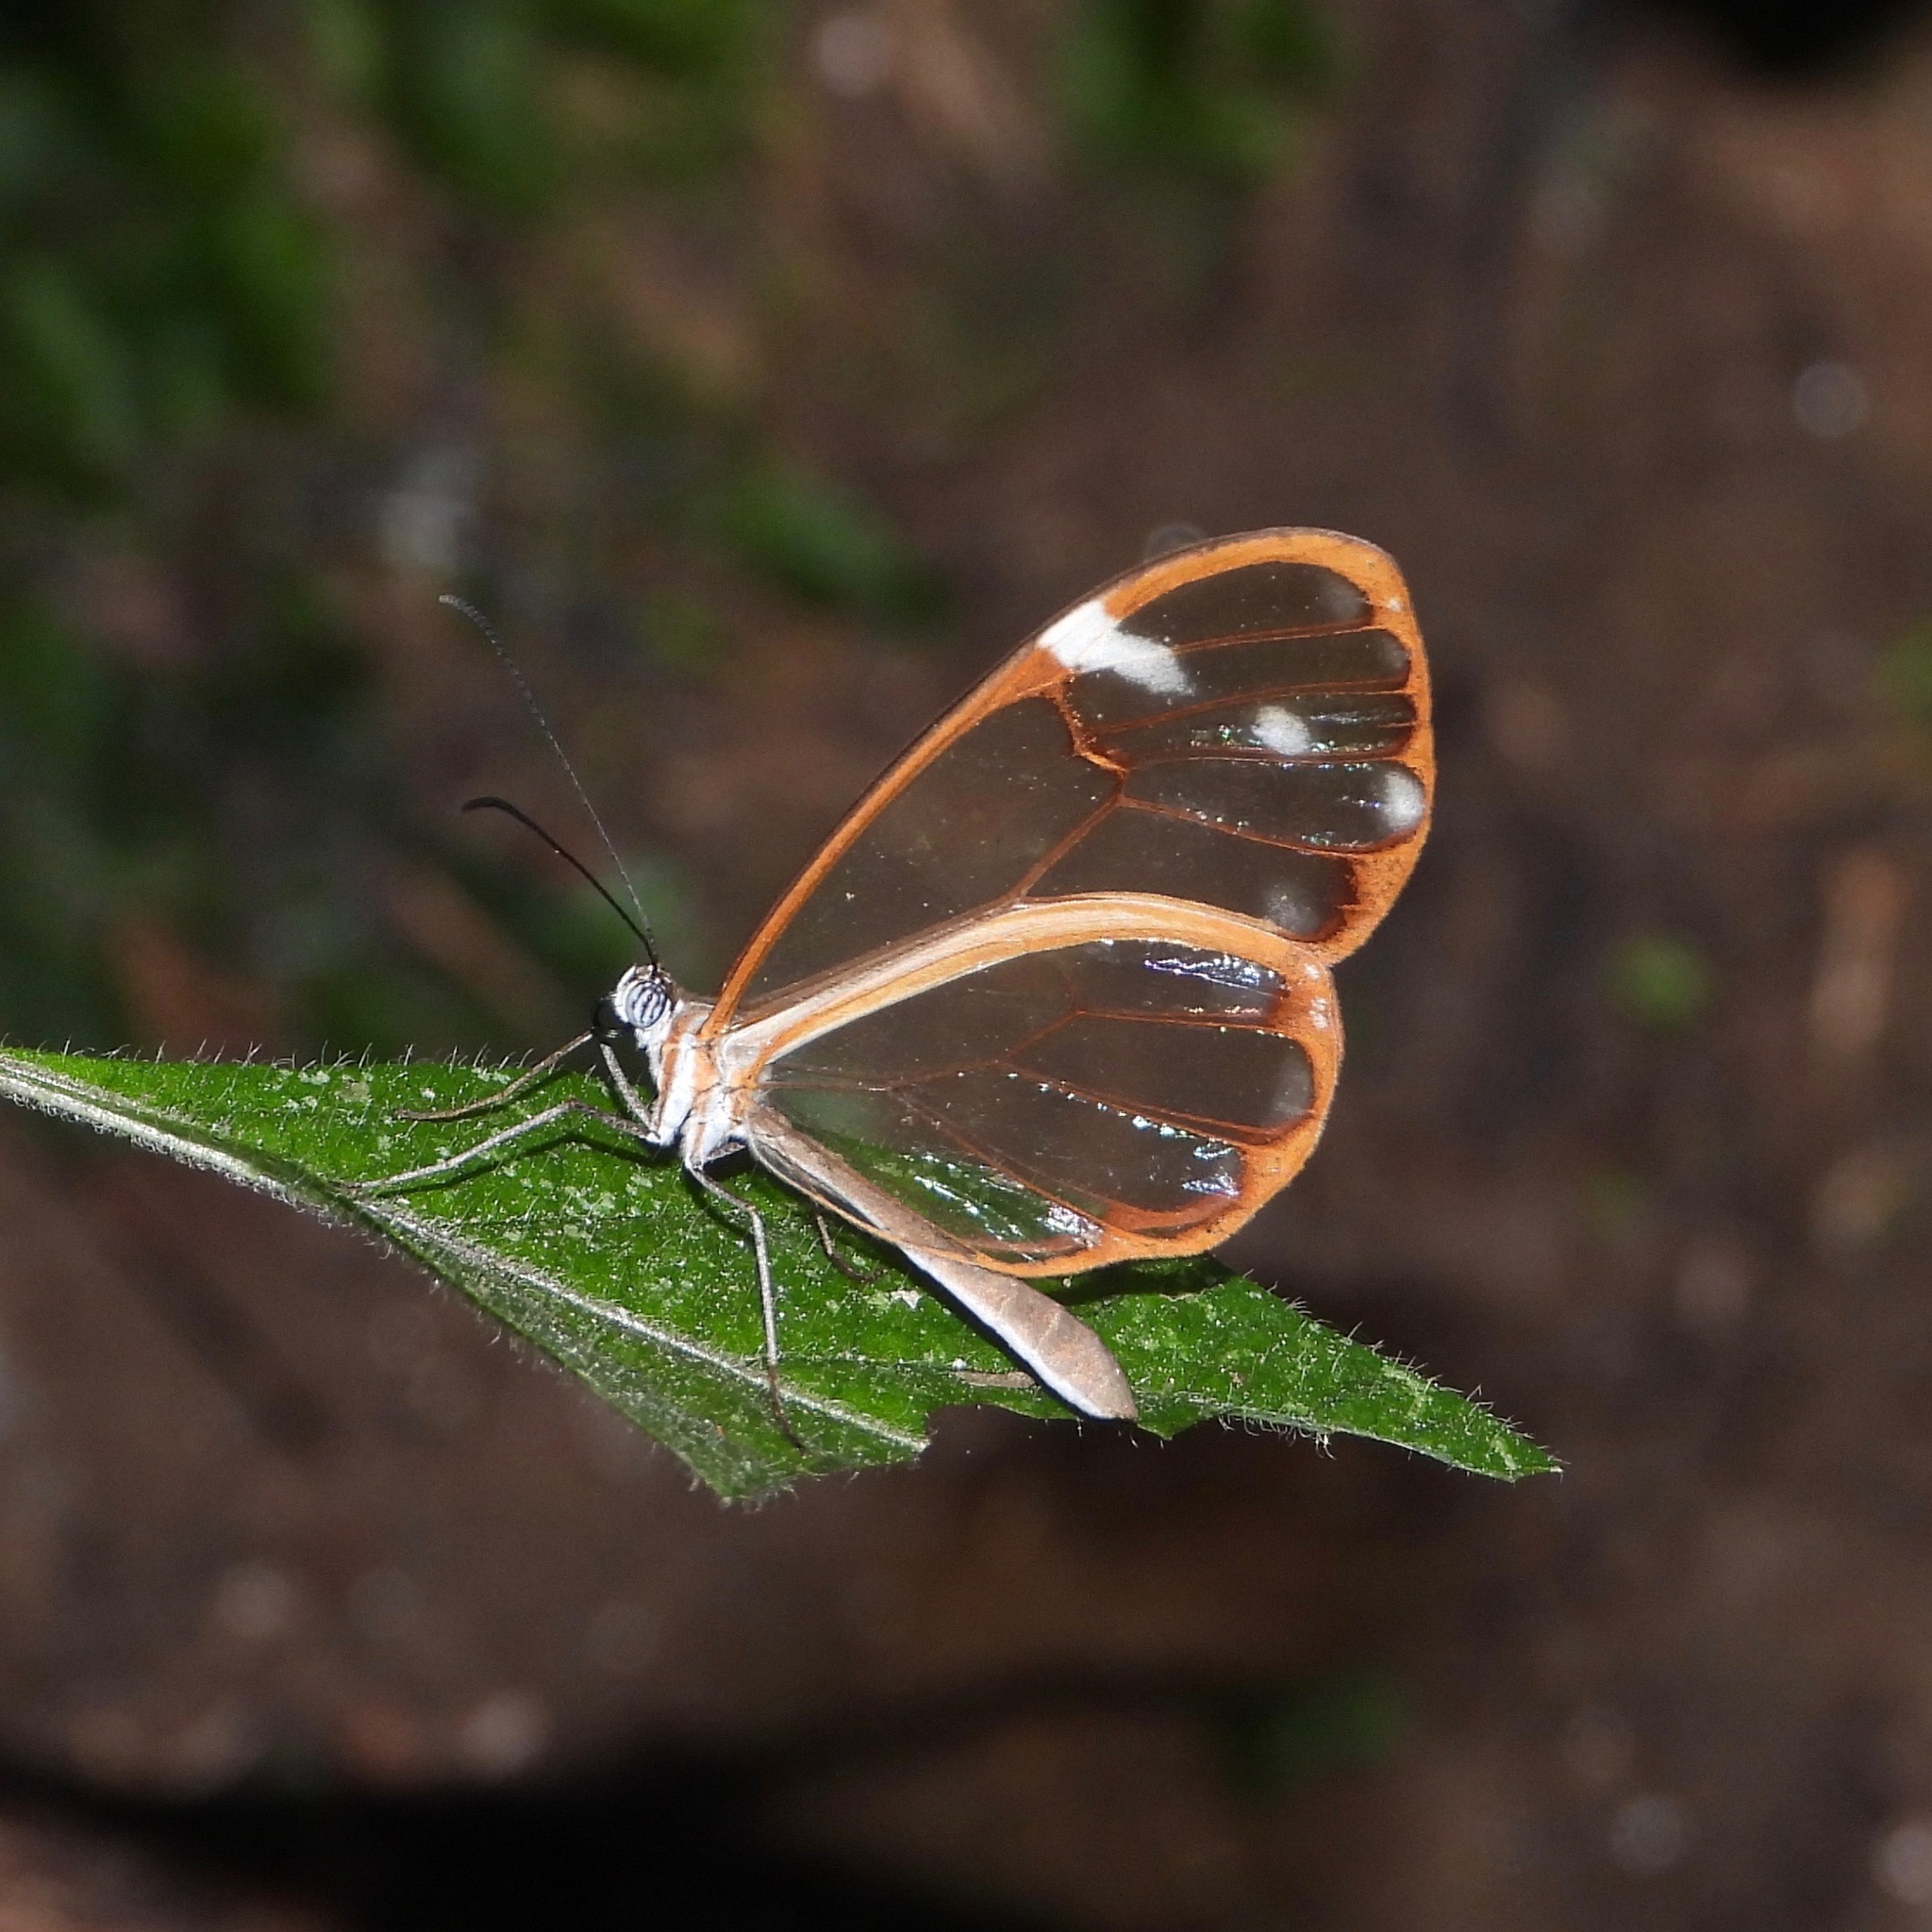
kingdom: Animalia
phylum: Arthropoda
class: Insecta
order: Lepidoptera
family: Nymphalidae
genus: Greta
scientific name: Greta annette
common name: White-spotted clearwing
